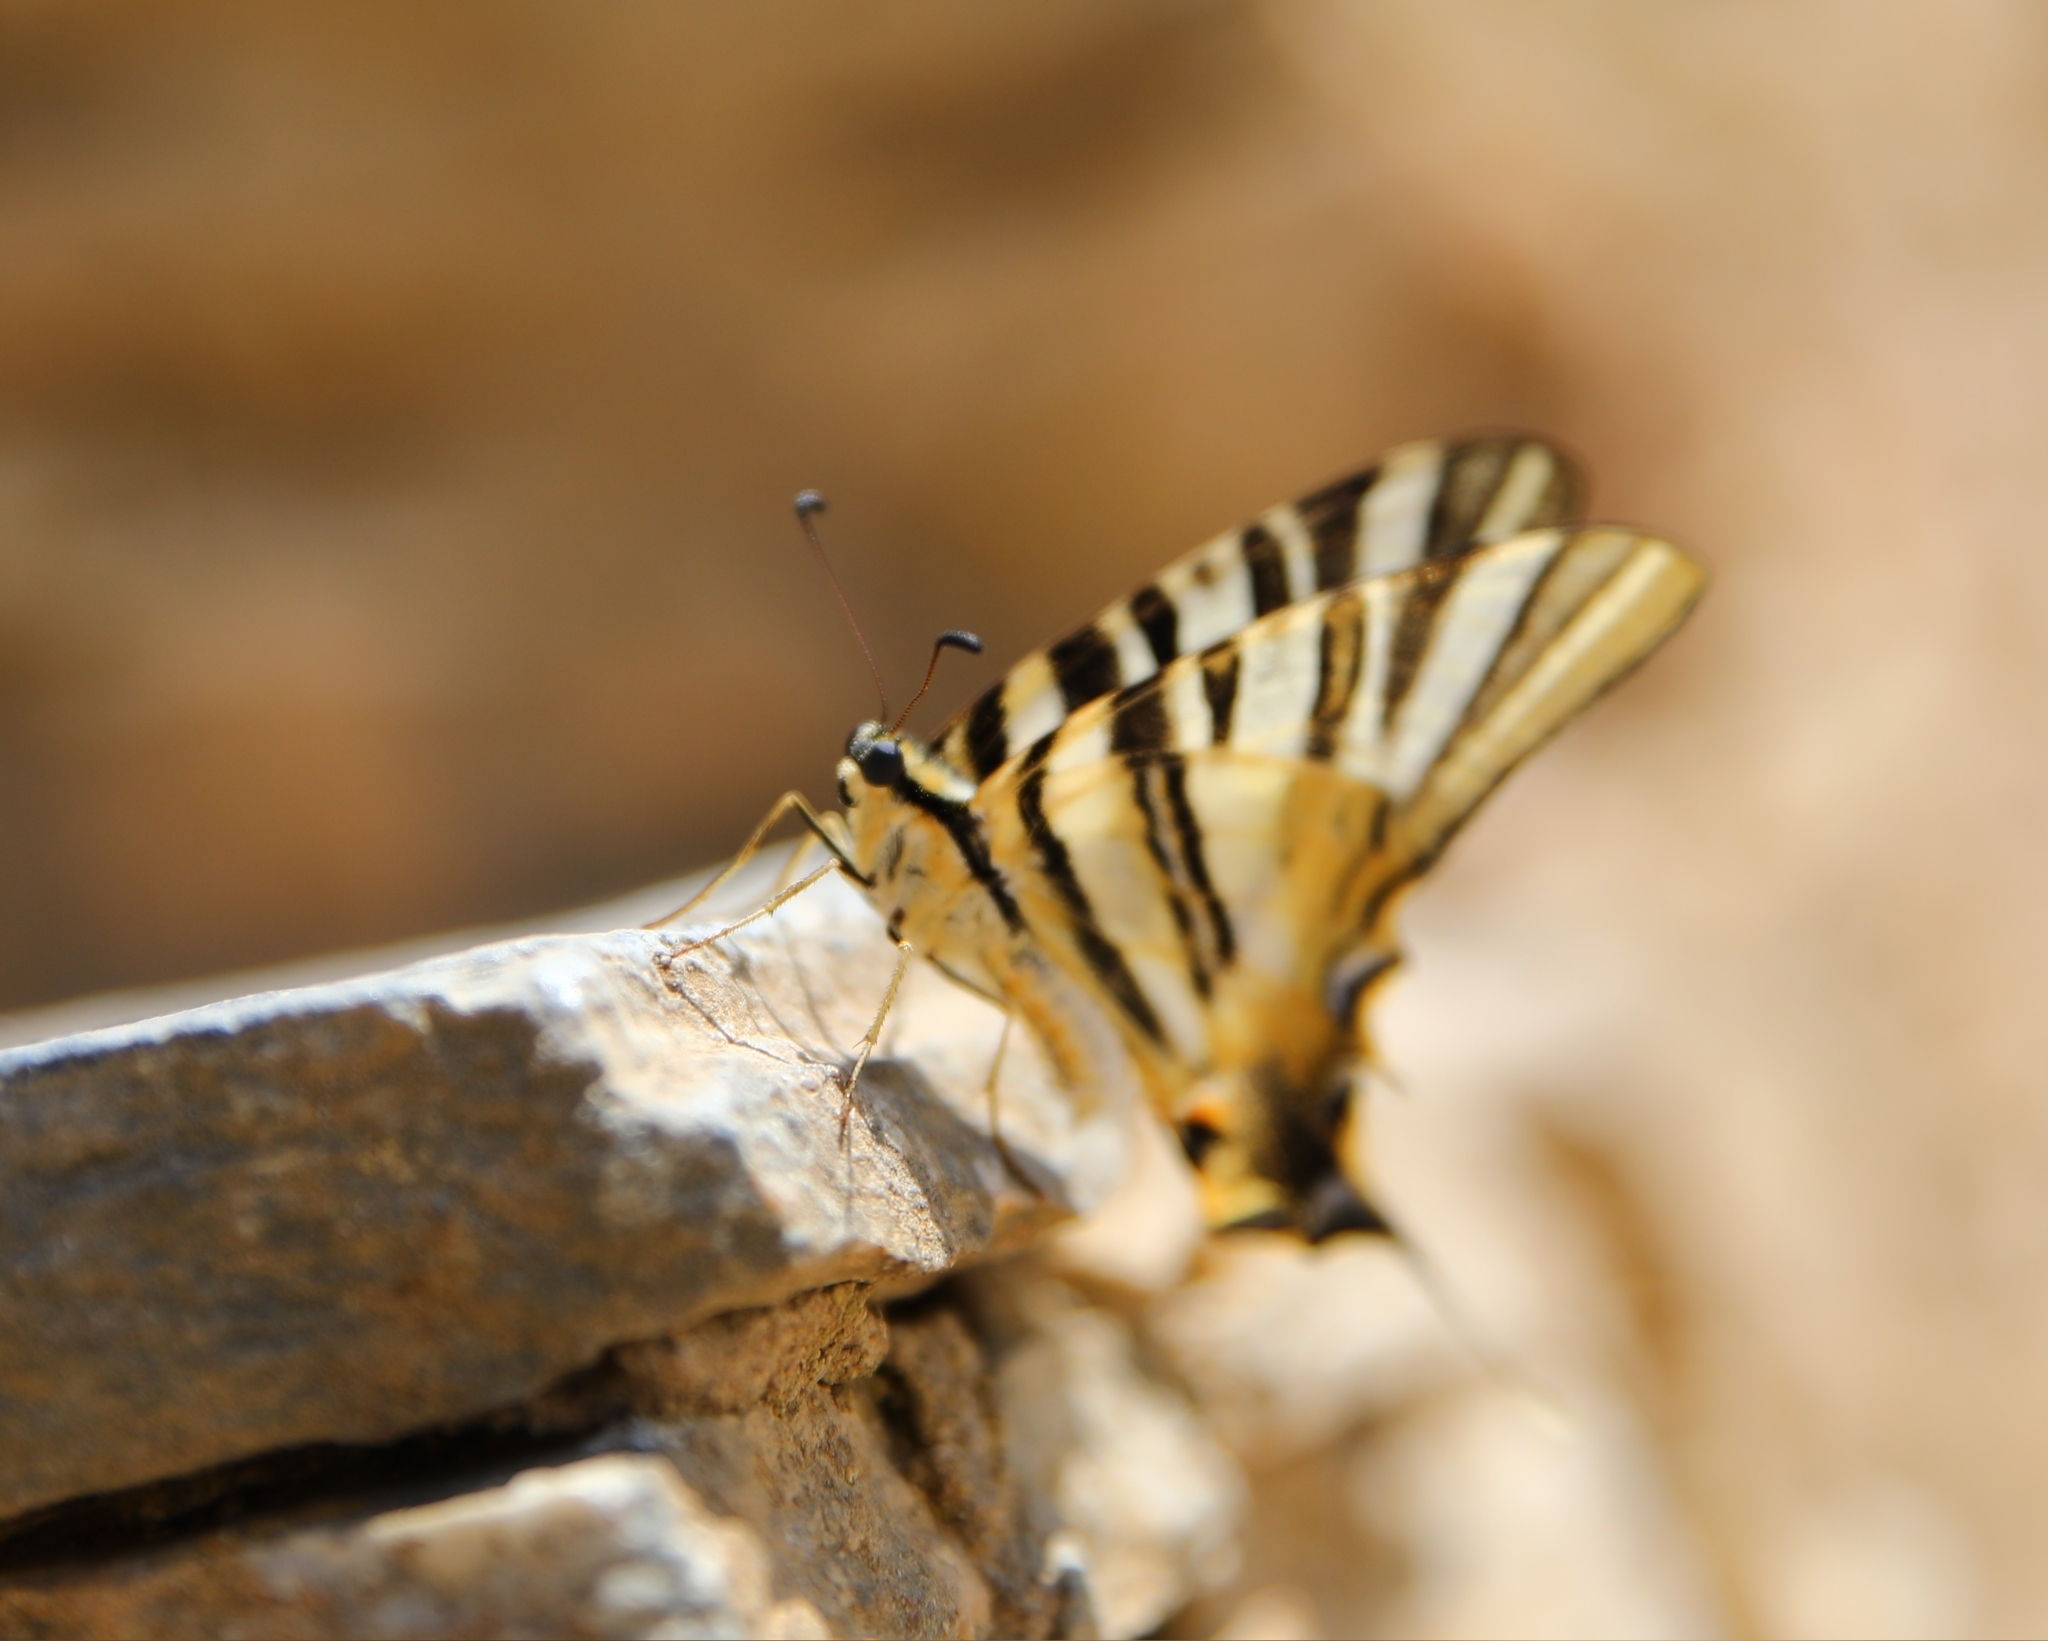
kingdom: Animalia
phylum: Arthropoda
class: Insecta
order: Lepidoptera
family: Papilionidae
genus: Iphiclides
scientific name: Iphiclides feisthamelii
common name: Iberian scarce swallowtail
